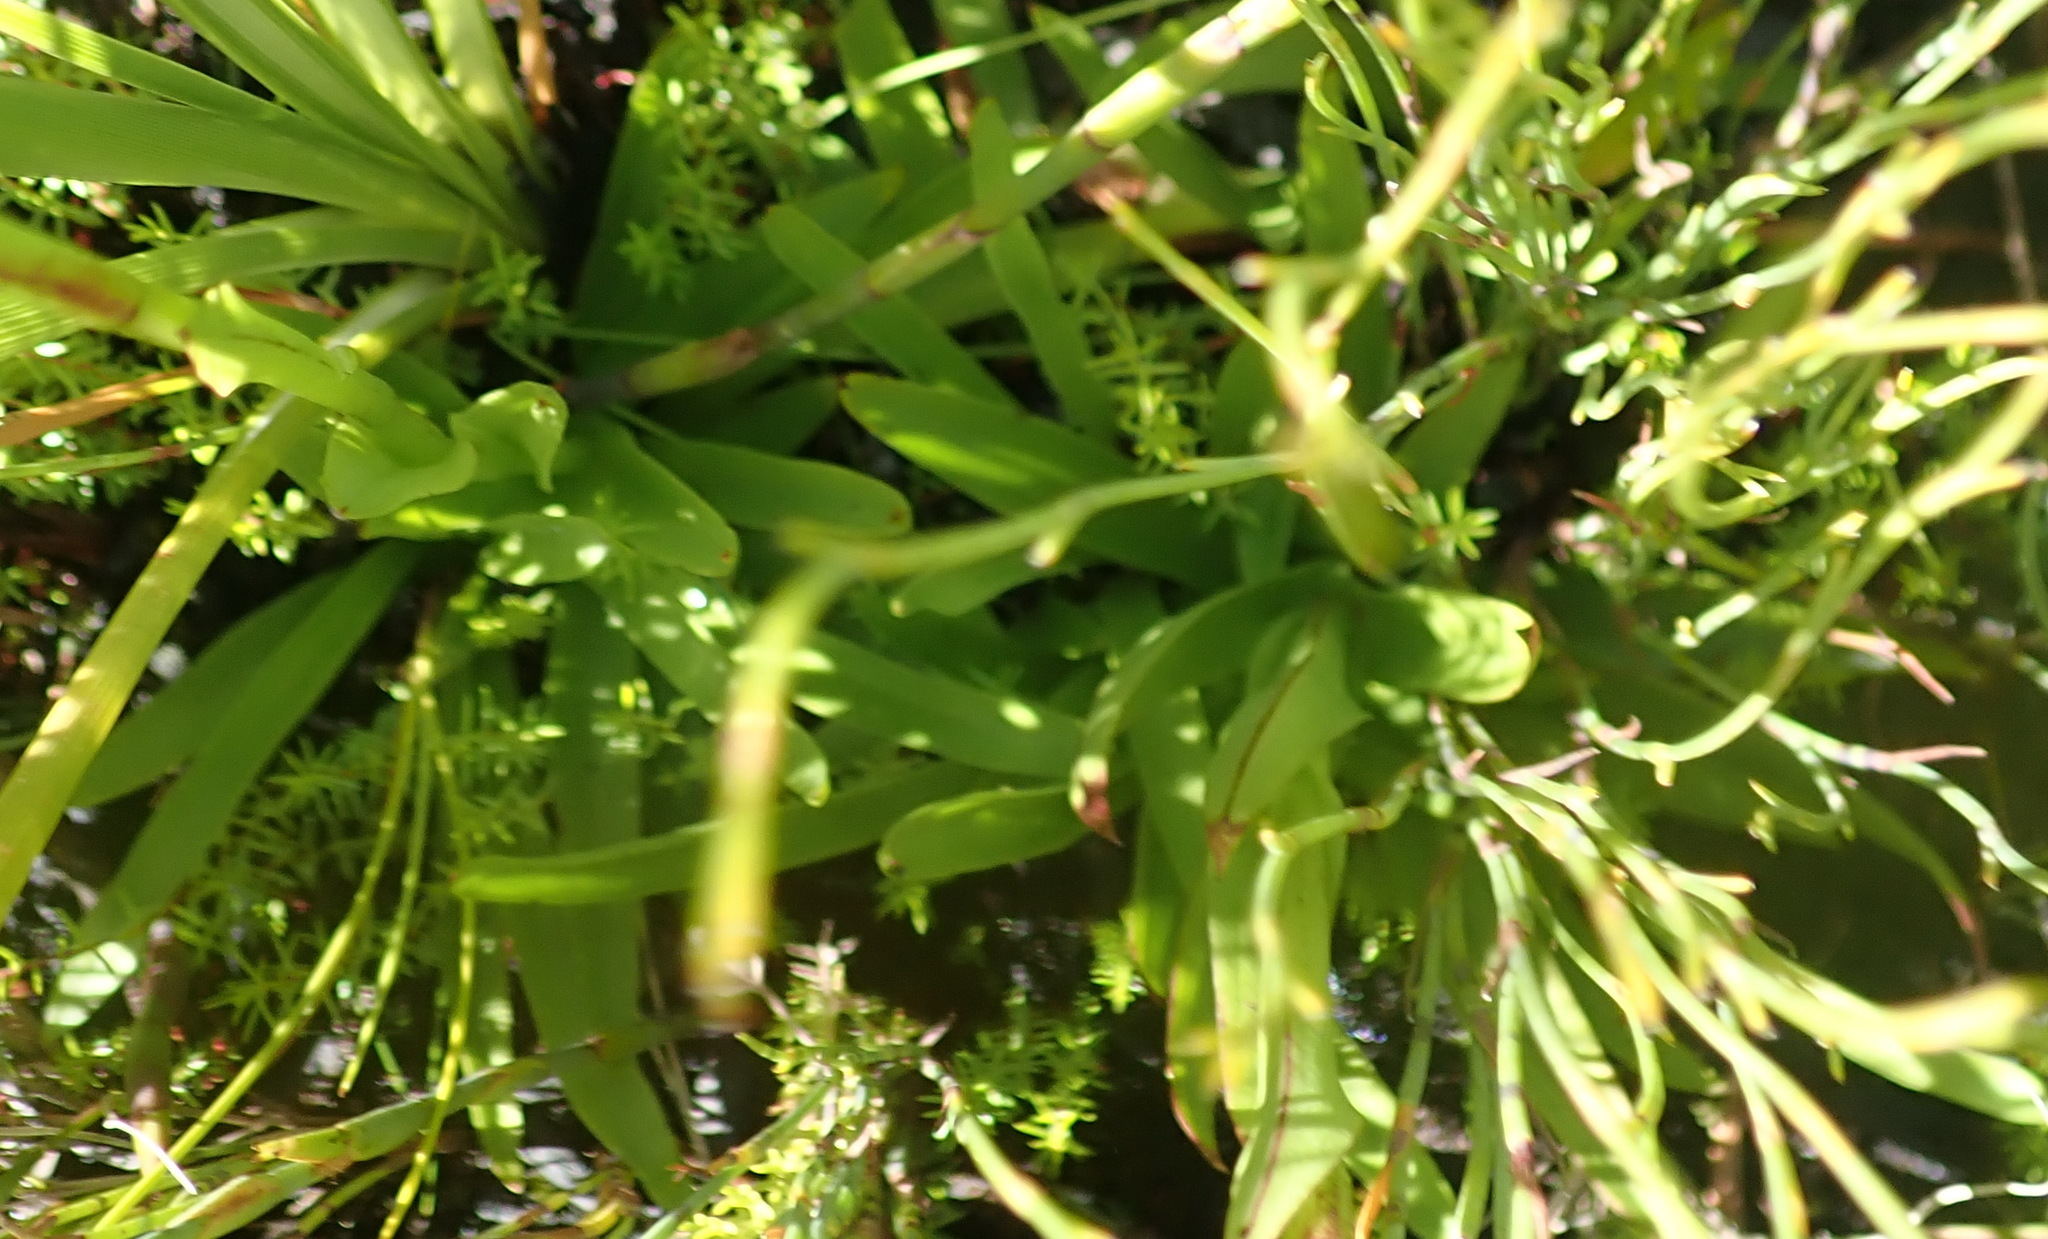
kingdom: Plantae
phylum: Tracheophyta
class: Liliopsida
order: Asparagales
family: Orchidaceae
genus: Disa
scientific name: Disa racemosa
